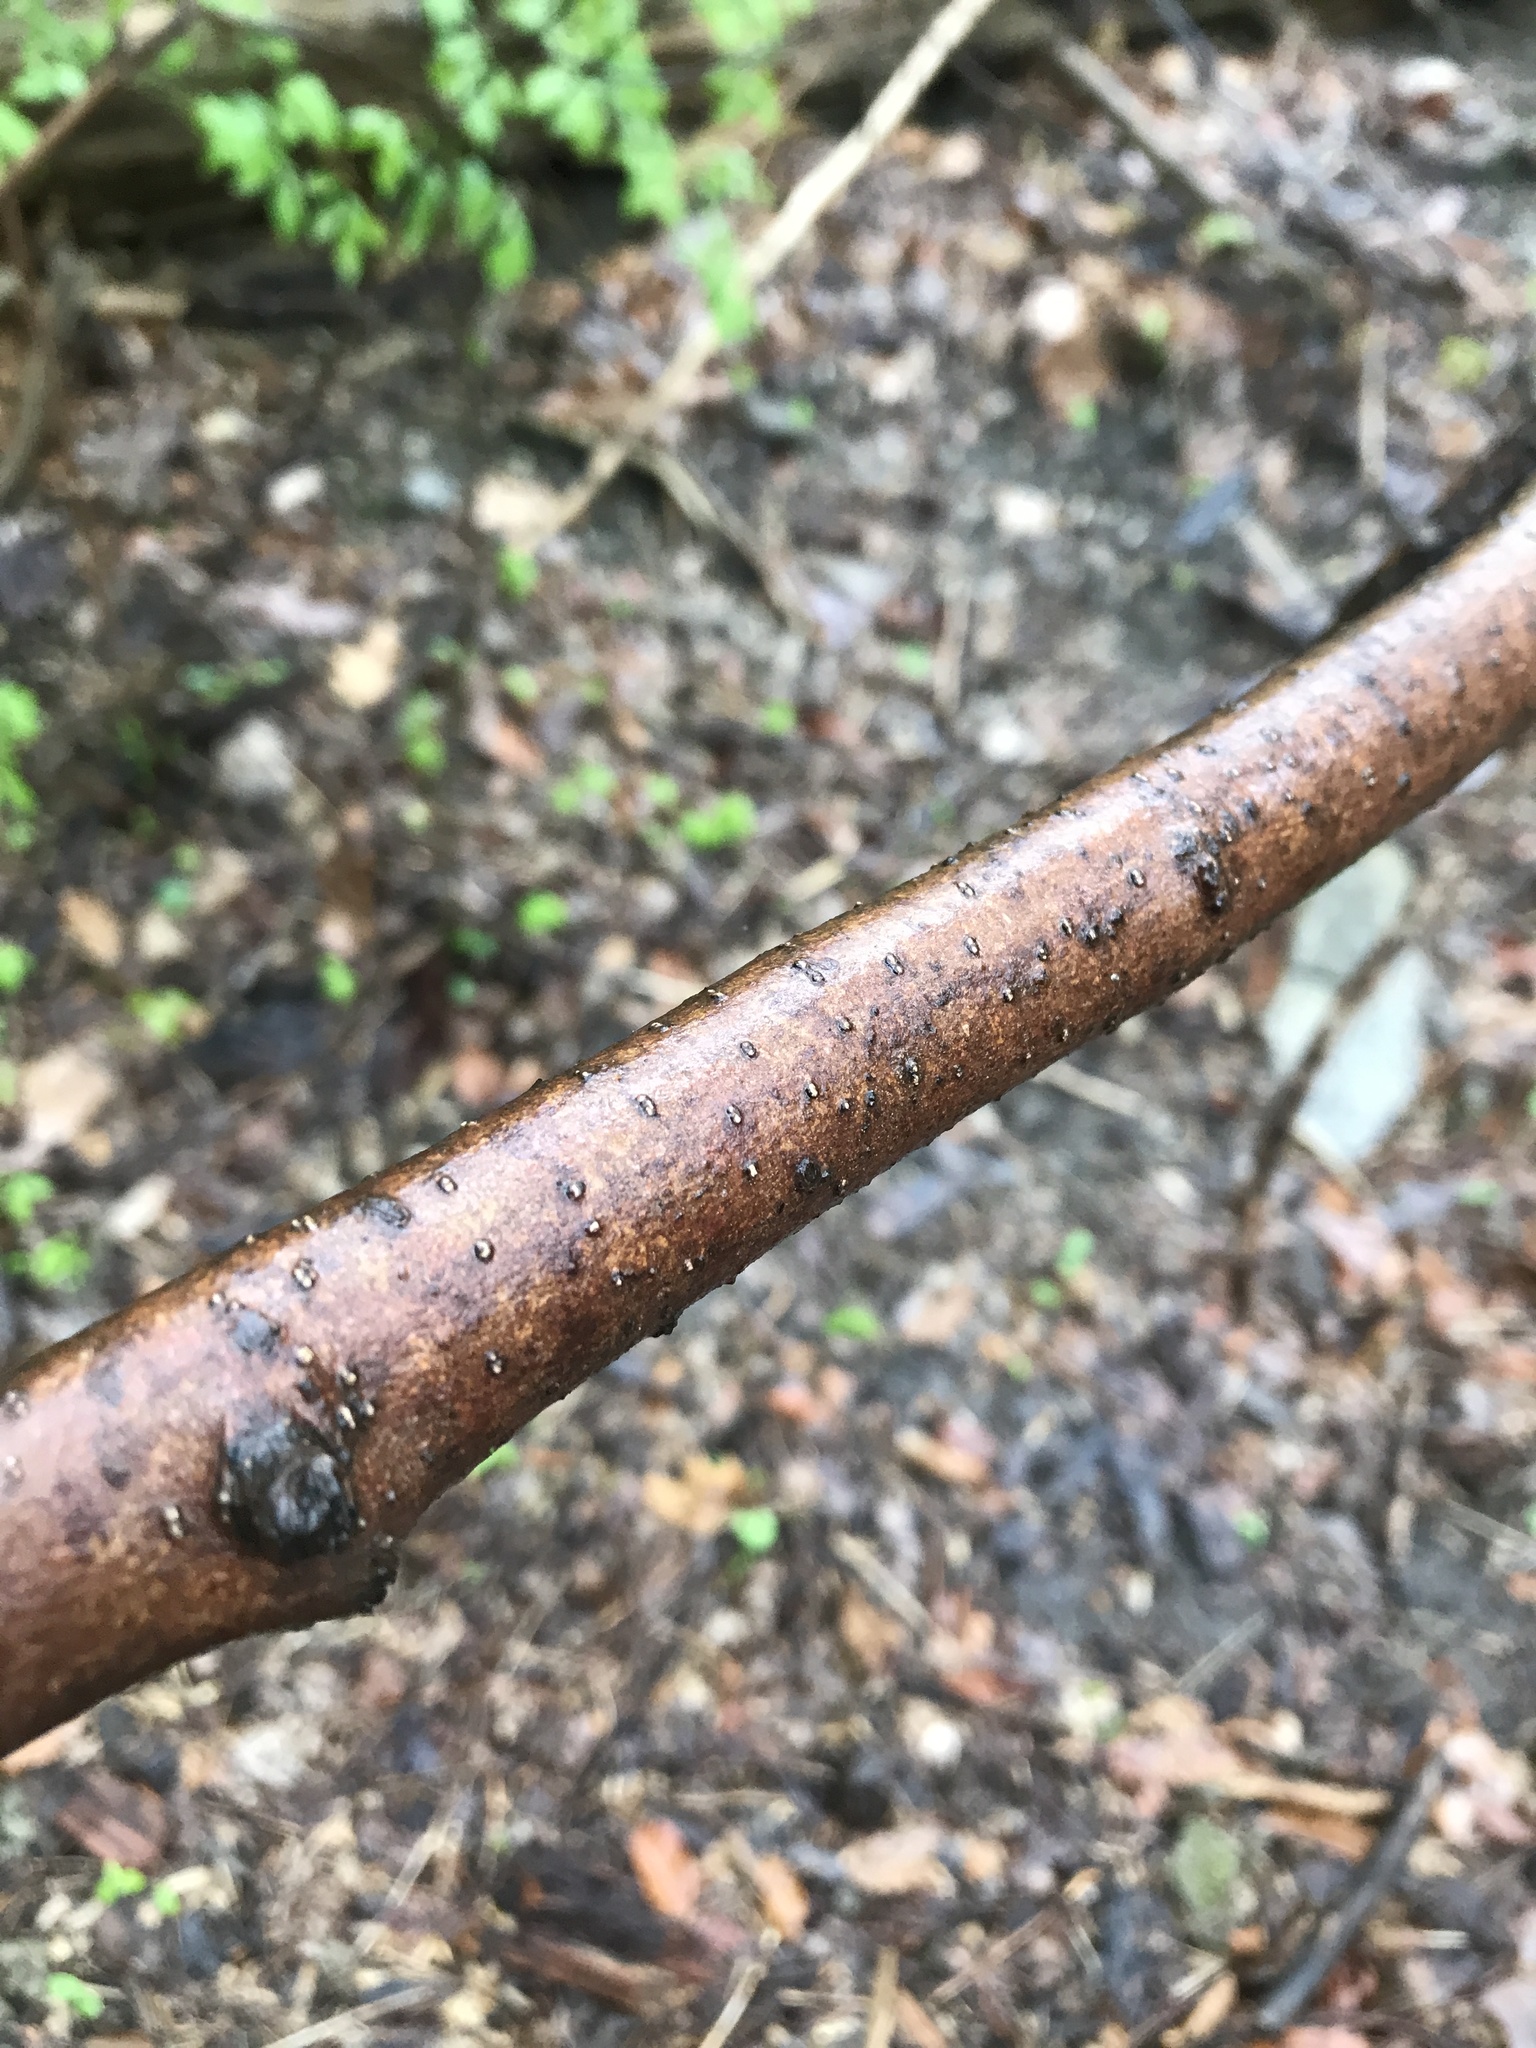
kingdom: Plantae
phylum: Tracheophyta
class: Magnoliopsida
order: Saxifragales
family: Hamamelidaceae
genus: Hamamelis
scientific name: Hamamelis virginiana
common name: Witch-hazel
